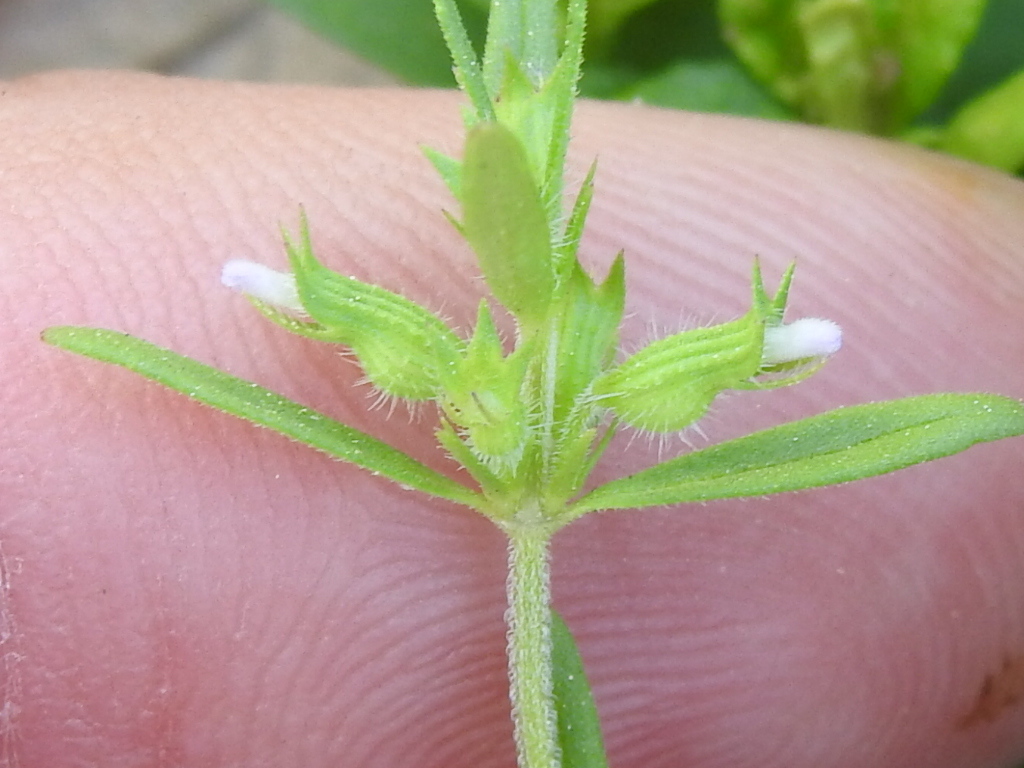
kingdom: Plantae
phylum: Tracheophyta
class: Magnoliopsida
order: Lamiales
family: Lamiaceae
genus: Hedeoma
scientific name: Hedeoma hispida
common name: Mock pennyroyal
